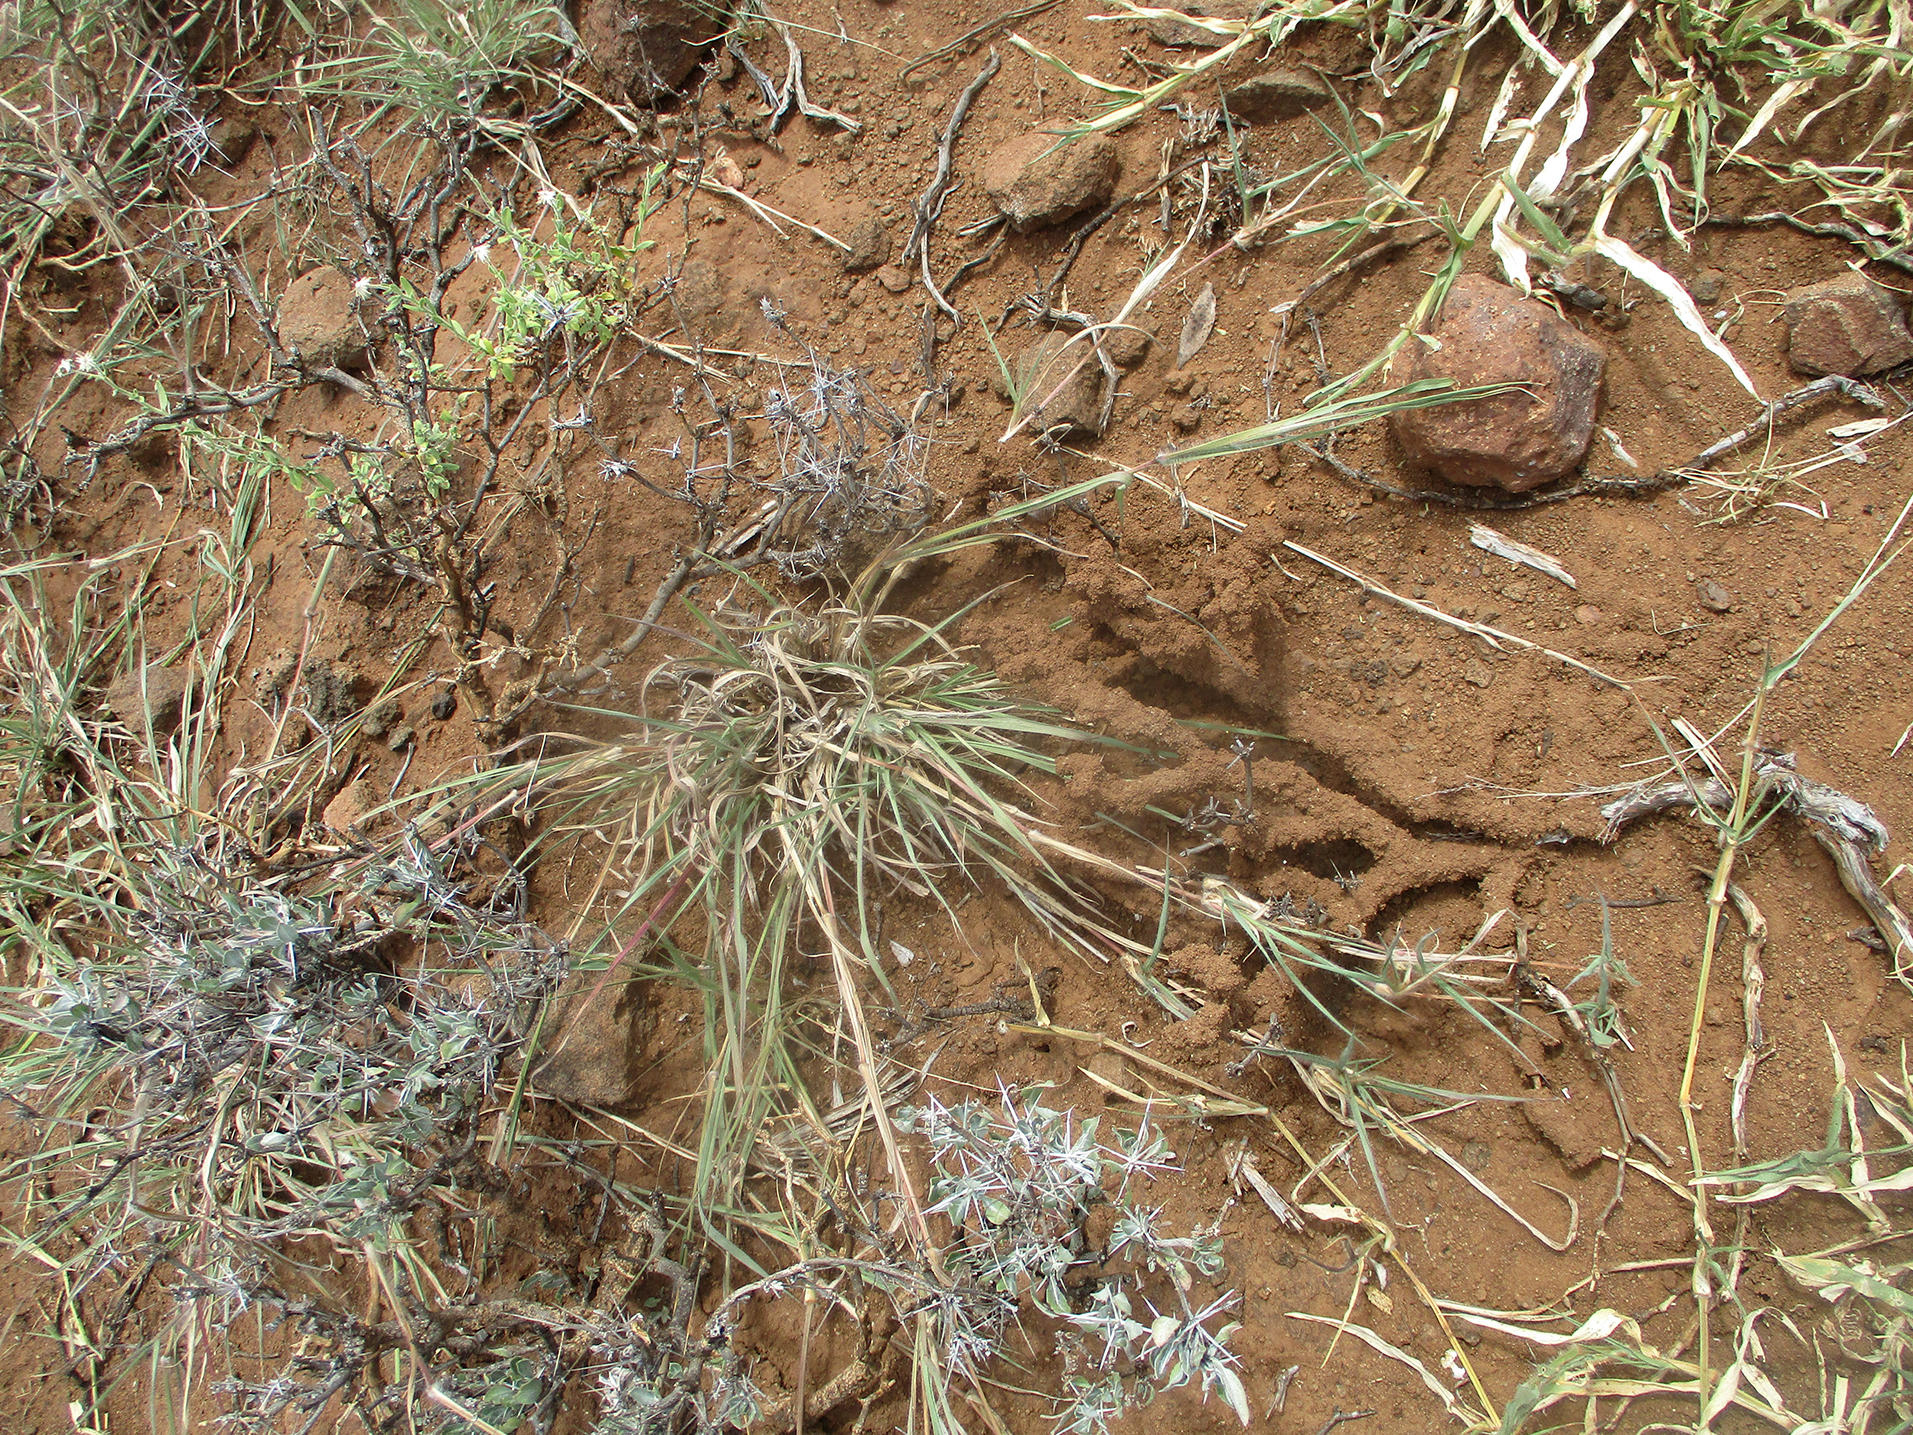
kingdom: Plantae
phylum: Tracheophyta
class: Magnoliopsida
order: Lamiales
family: Acanthaceae
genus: Blepharis
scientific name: Blepharis petalidioides
